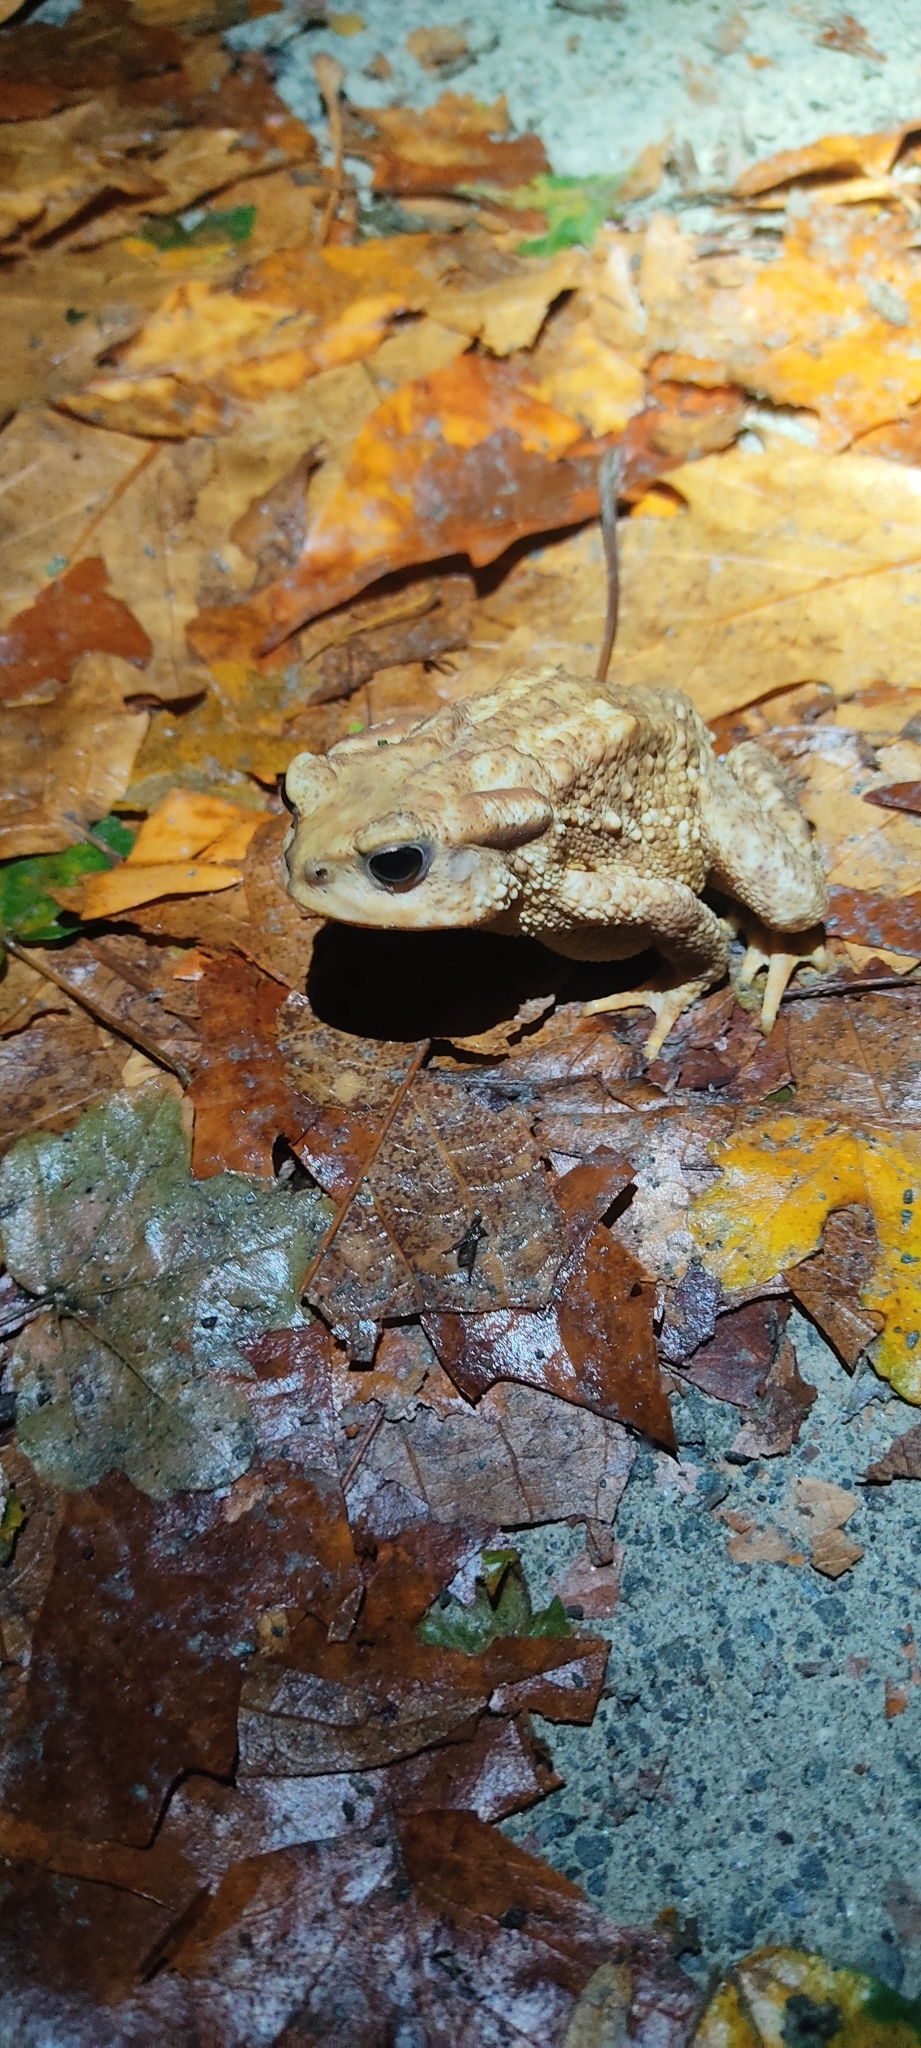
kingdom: Animalia
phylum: Chordata
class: Amphibia
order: Anura
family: Bufonidae
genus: Bufo
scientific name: Bufo spinosus
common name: Western common toad
